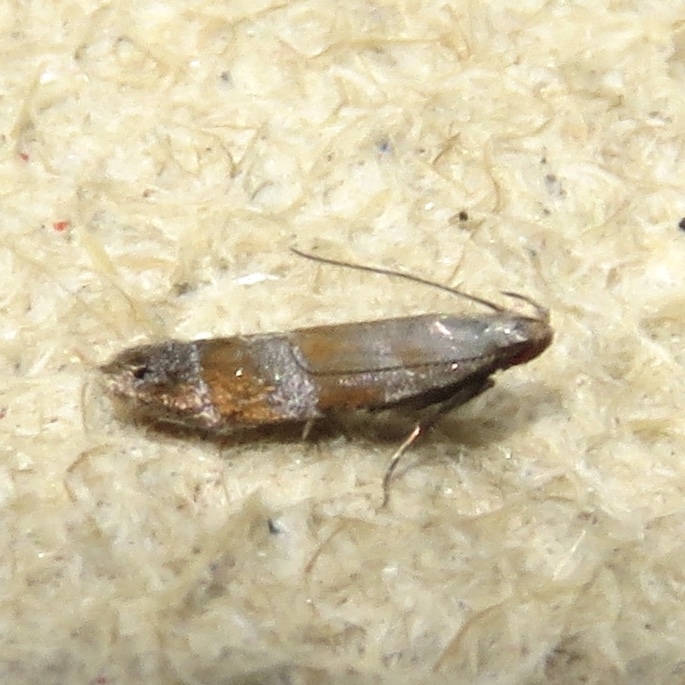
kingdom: Animalia
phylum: Arthropoda
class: Insecta
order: Lepidoptera
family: Gelechiidae
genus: Battaristis
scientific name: Battaristis vittella
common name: Orange stripe-backed moth
